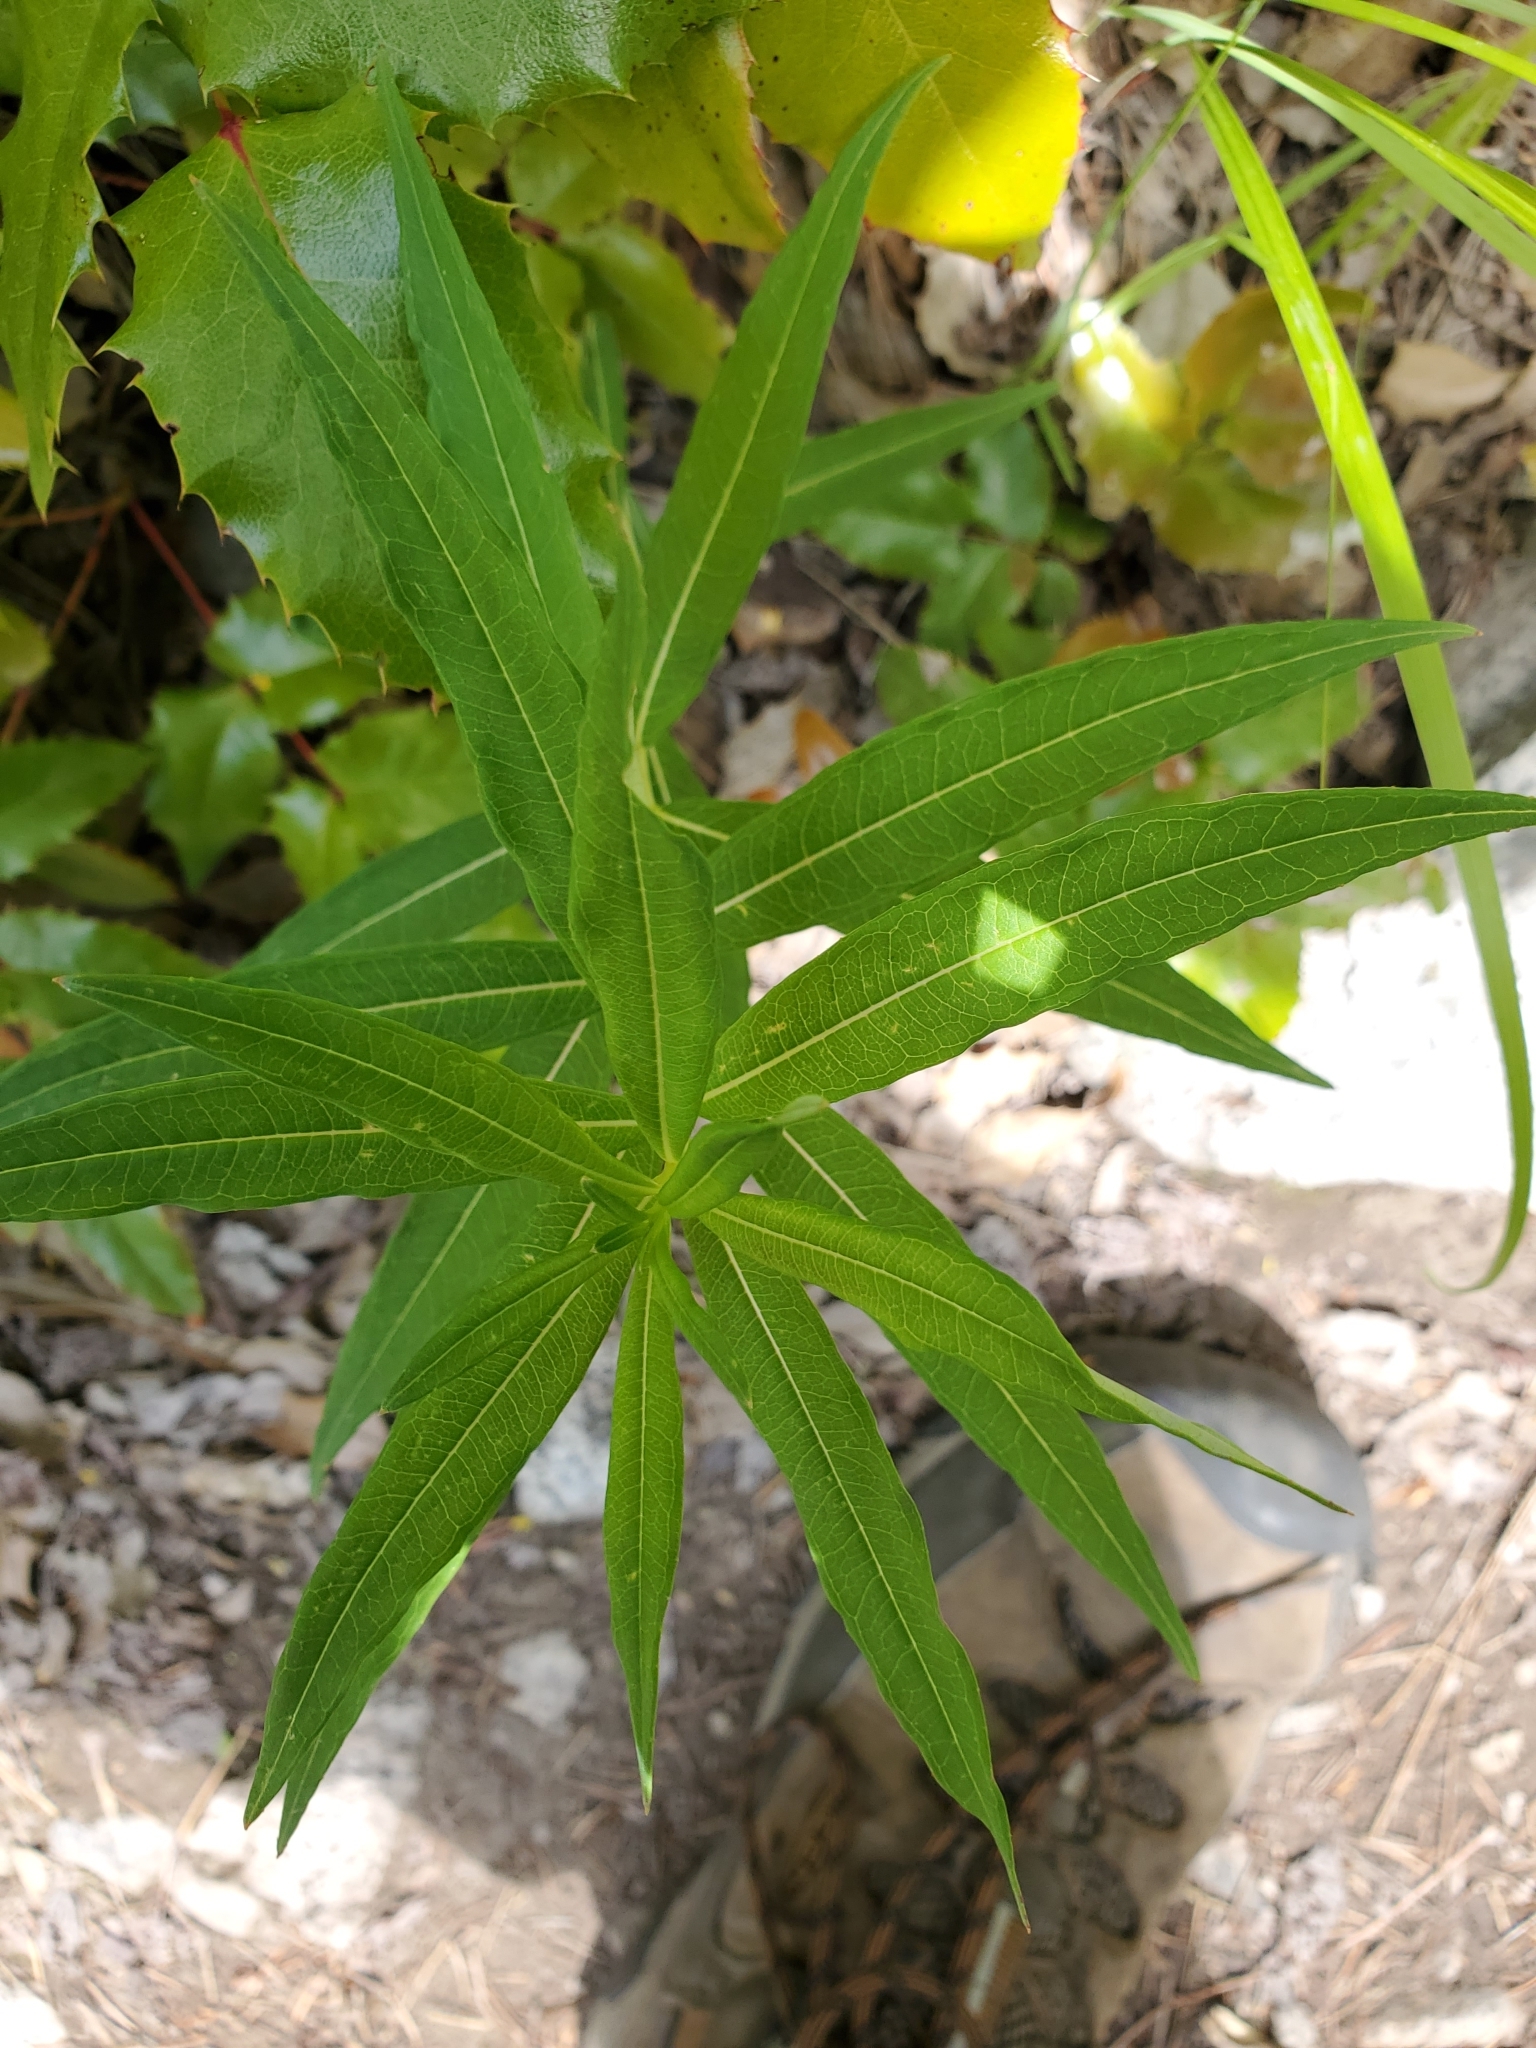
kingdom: Plantae
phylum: Tracheophyta
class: Magnoliopsida
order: Myrtales
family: Onagraceae
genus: Chamaenerion
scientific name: Chamaenerion angustifolium
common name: Fireweed
